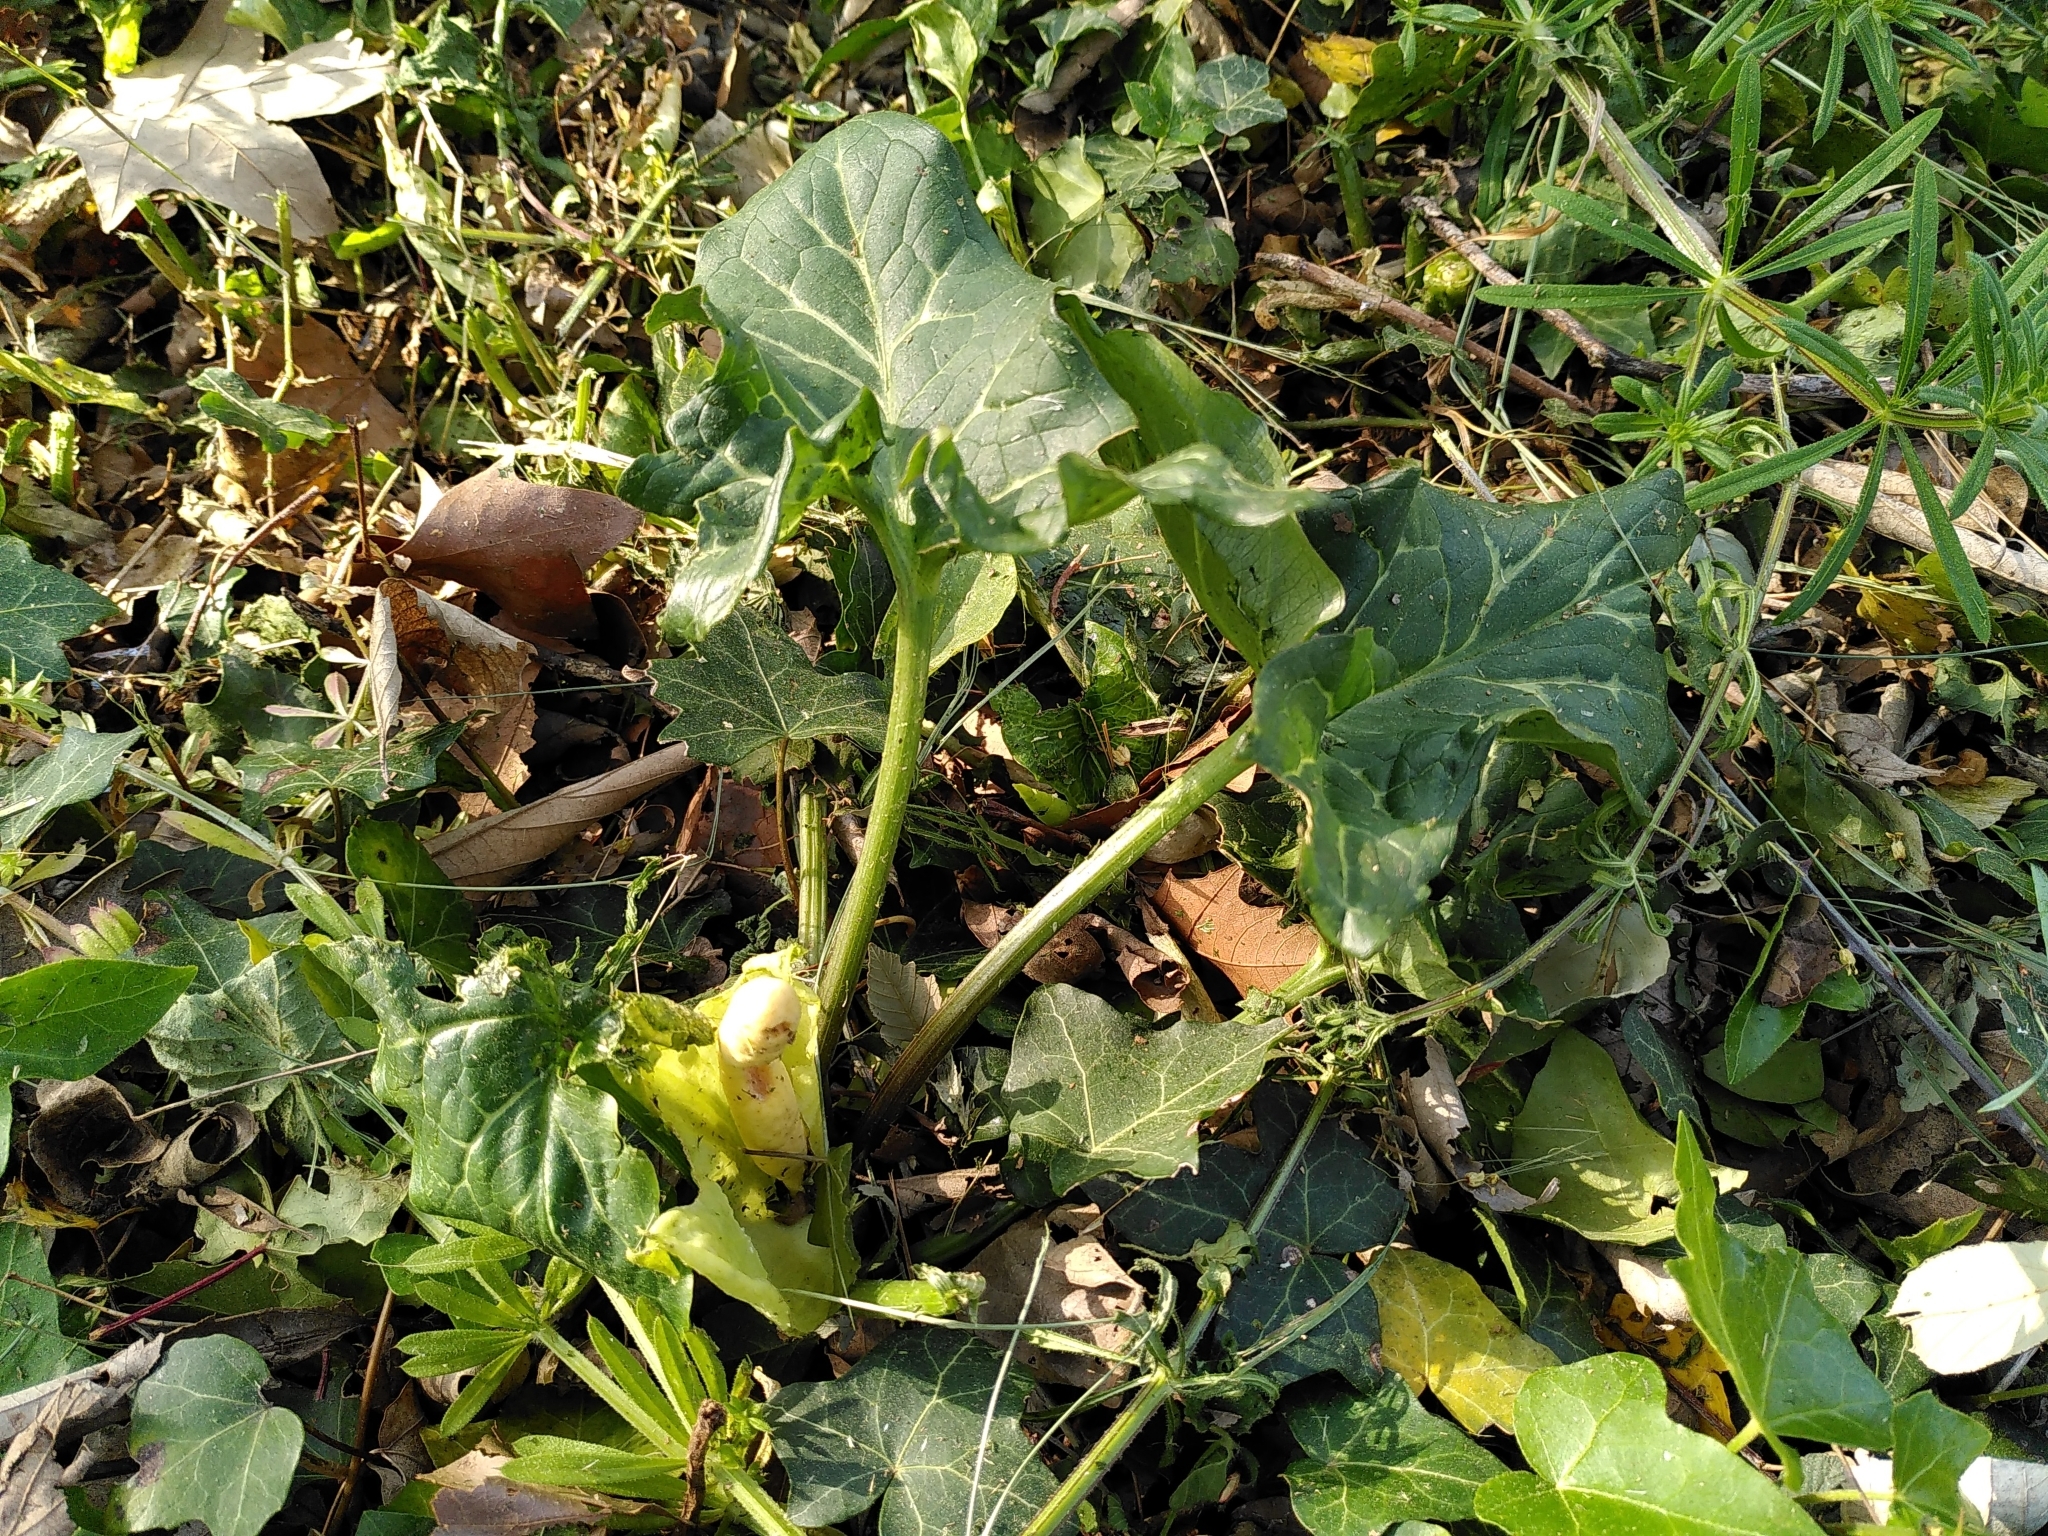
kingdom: Plantae
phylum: Tracheophyta
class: Liliopsida
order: Alismatales
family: Araceae
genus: Arum
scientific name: Arum italicum
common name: Italian lords-and-ladies
